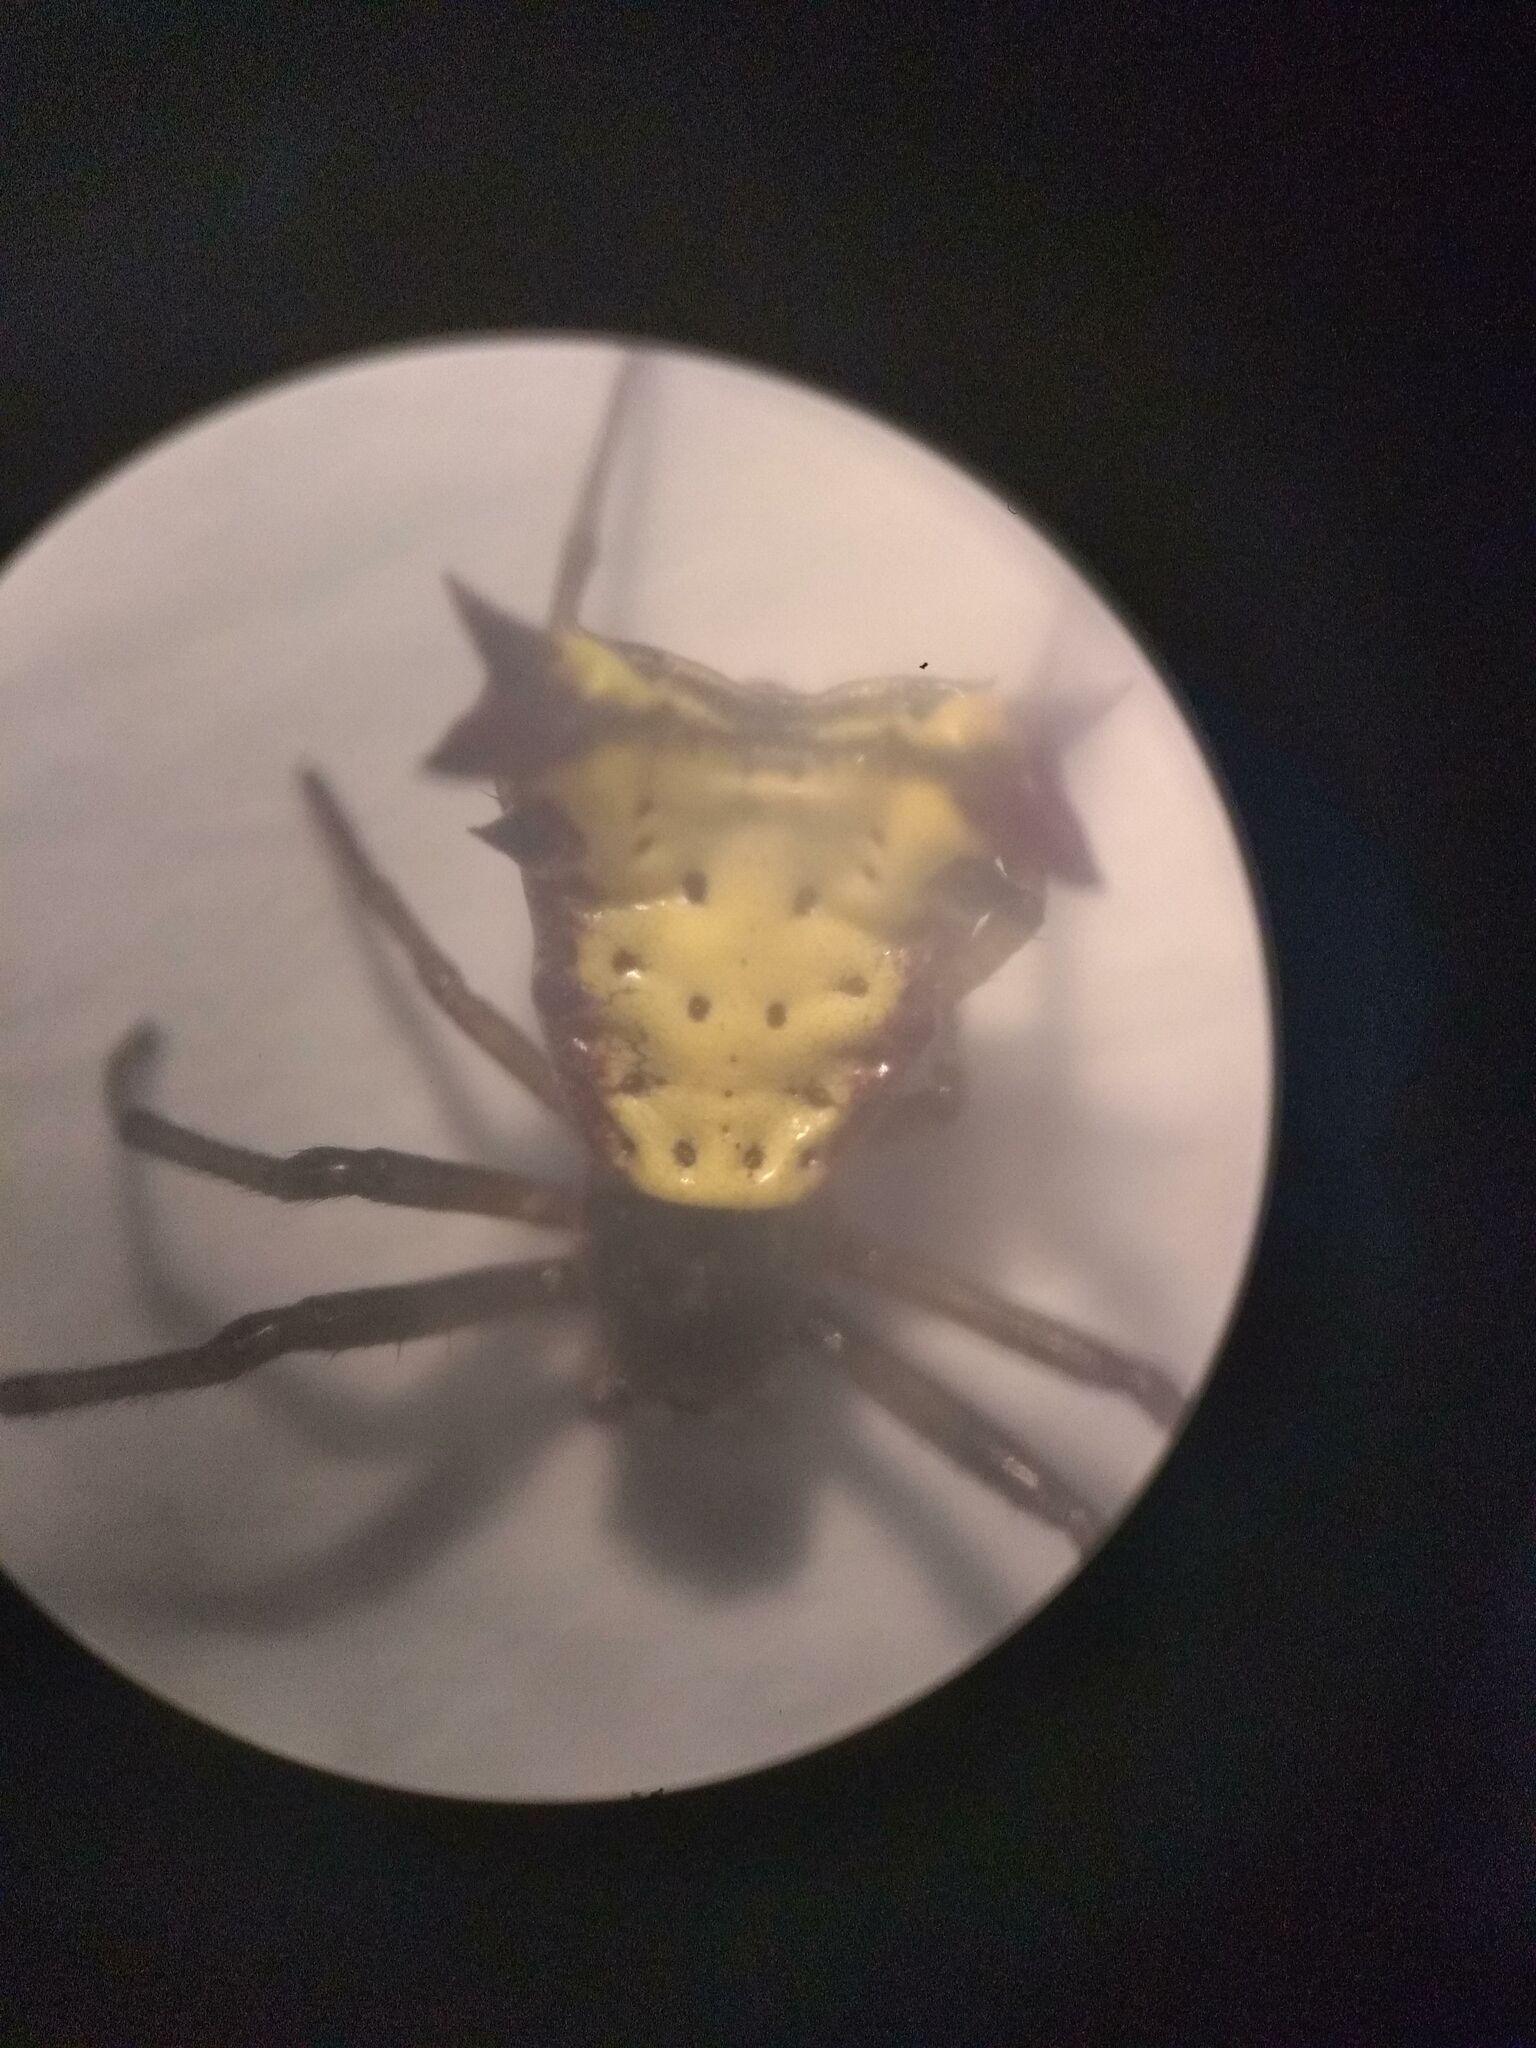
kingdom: Animalia
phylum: Arthropoda
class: Arachnida
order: Araneae
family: Araneidae
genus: Micrathena
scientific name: Micrathena furva
